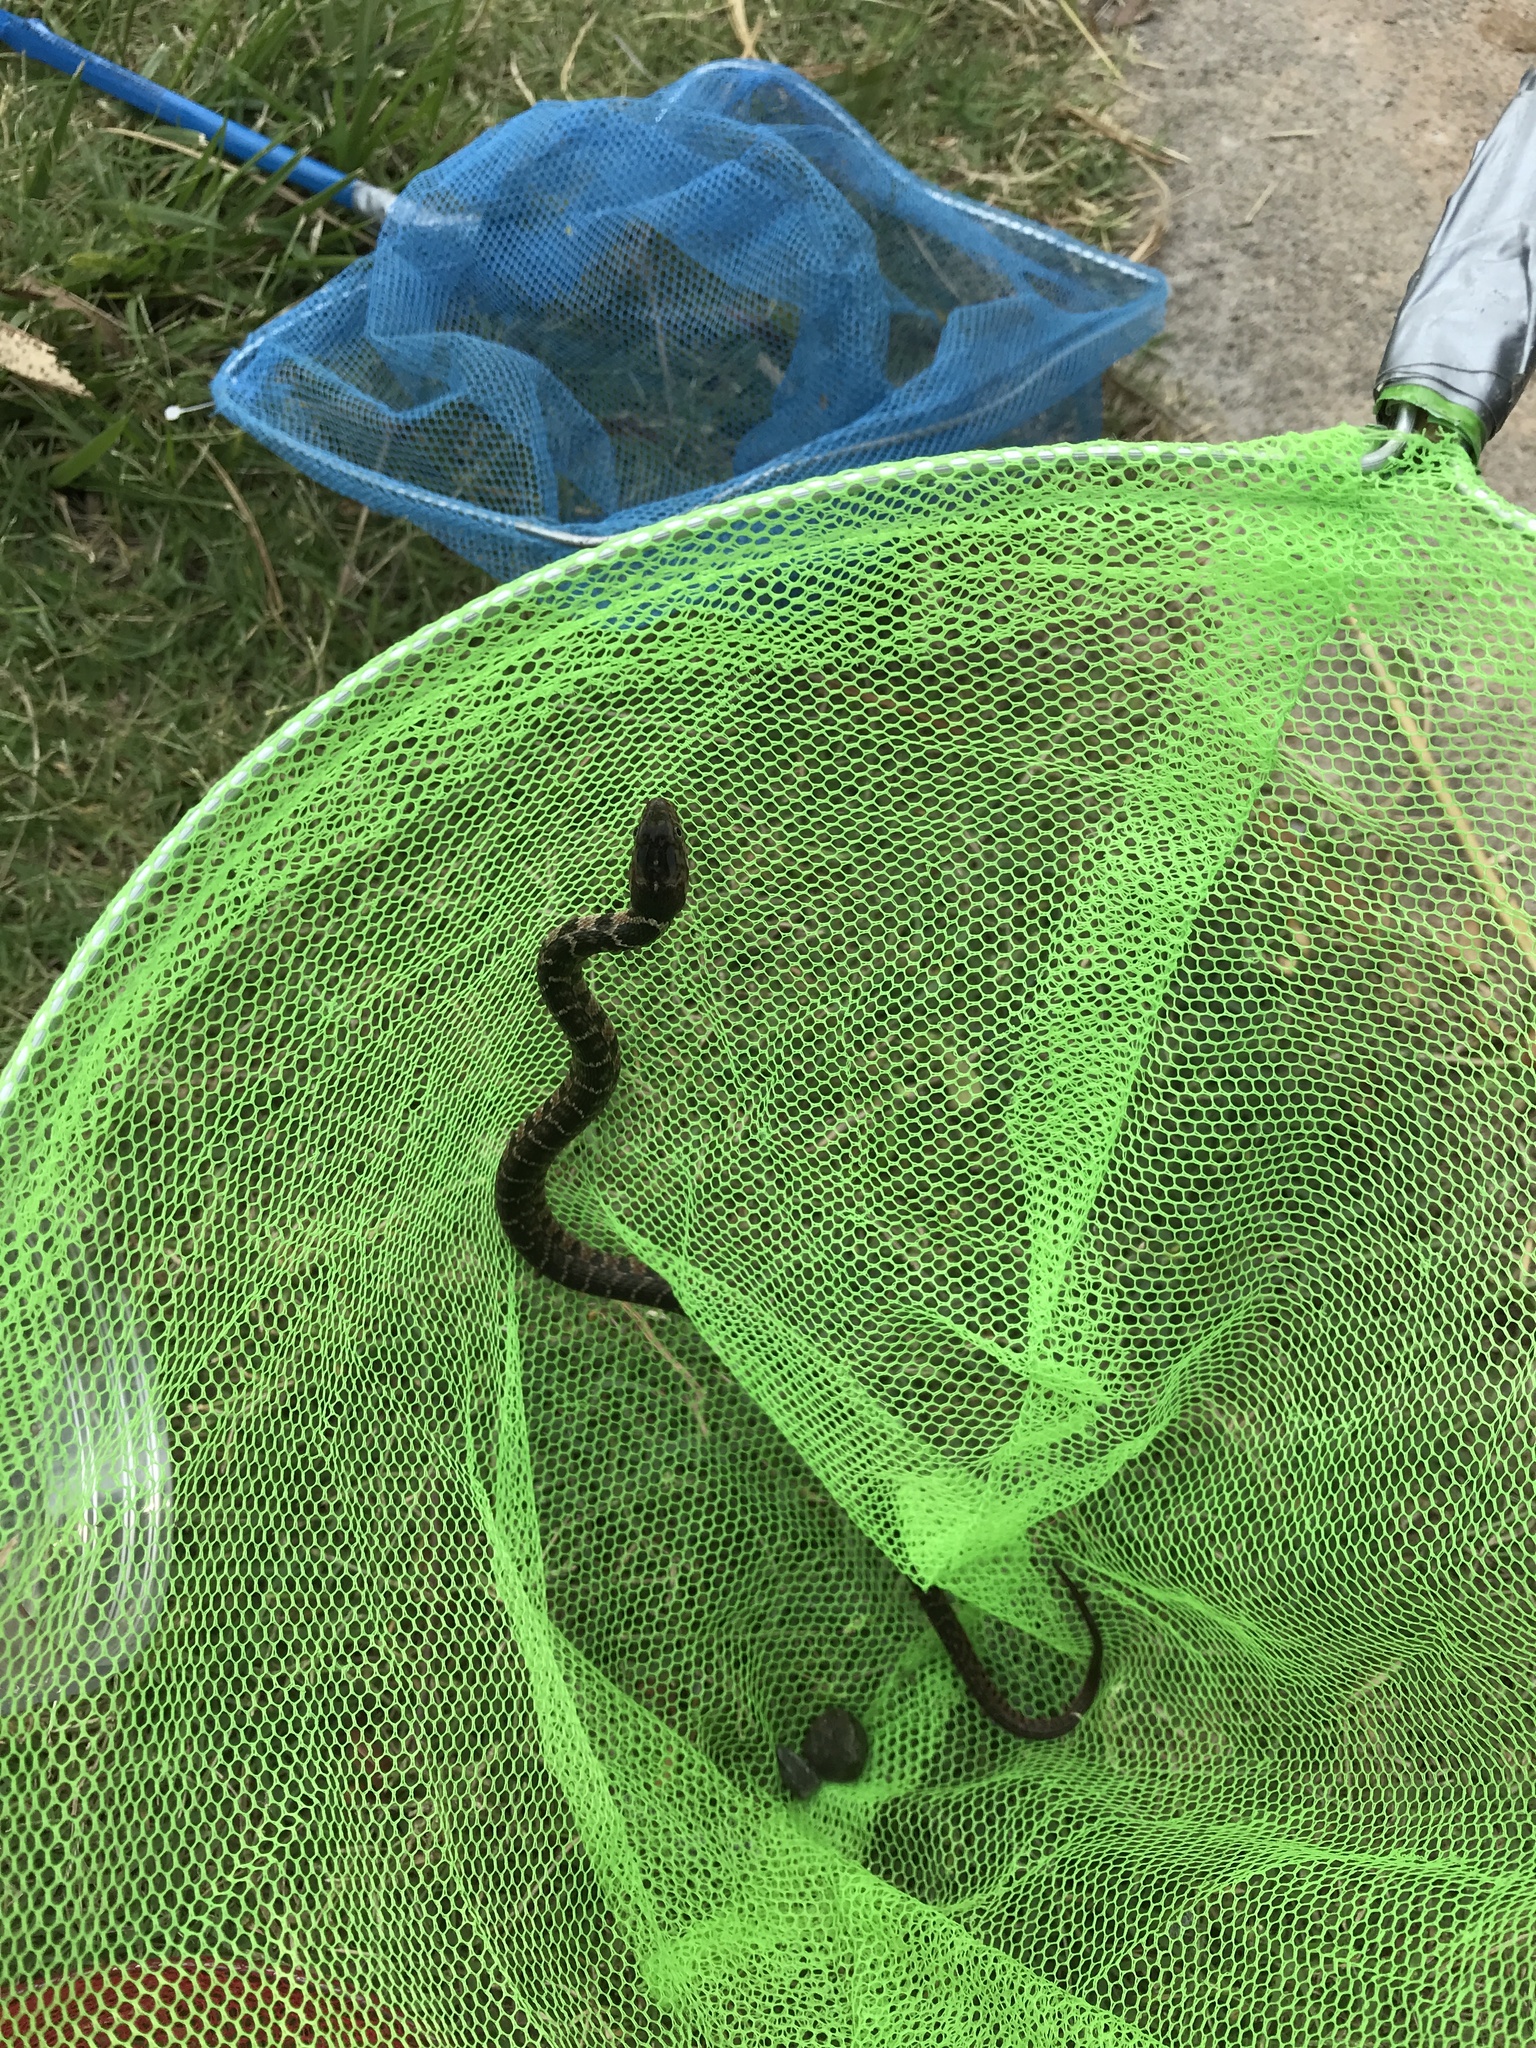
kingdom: Animalia
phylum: Chordata
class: Squamata
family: Colubridae
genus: Nerodia
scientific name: Nerodia erythrogaster
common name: Plainbelly water snake
